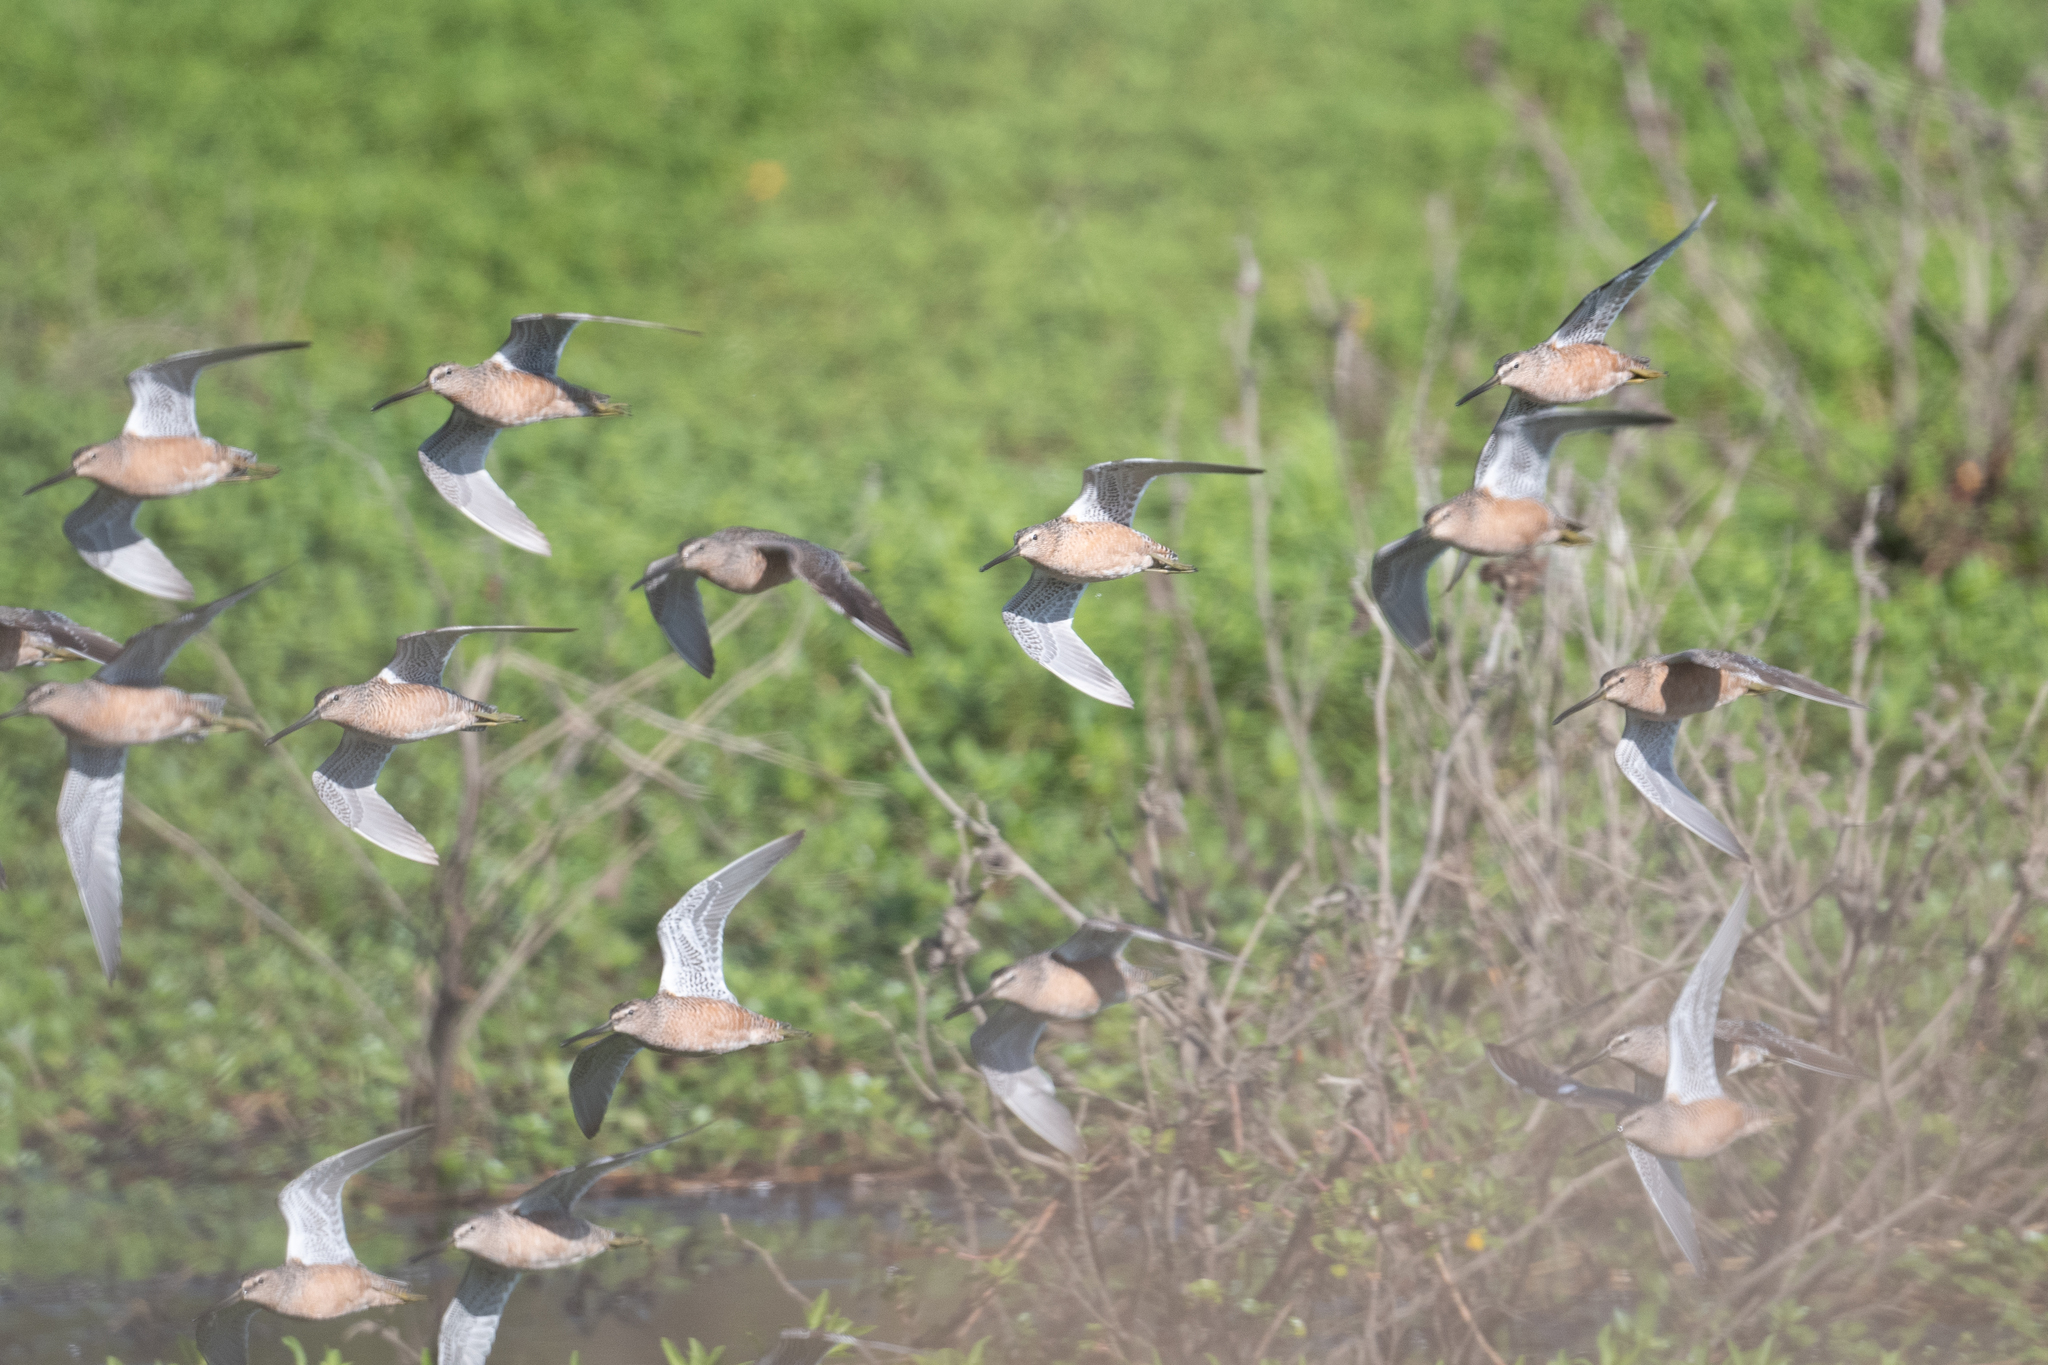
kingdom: Animalia
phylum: Chordata
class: Aves
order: Charadriiformes
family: Scolopacidae
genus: Limnodromus
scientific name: Limnodromus scolopaceus
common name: Long-billed dowitcher
